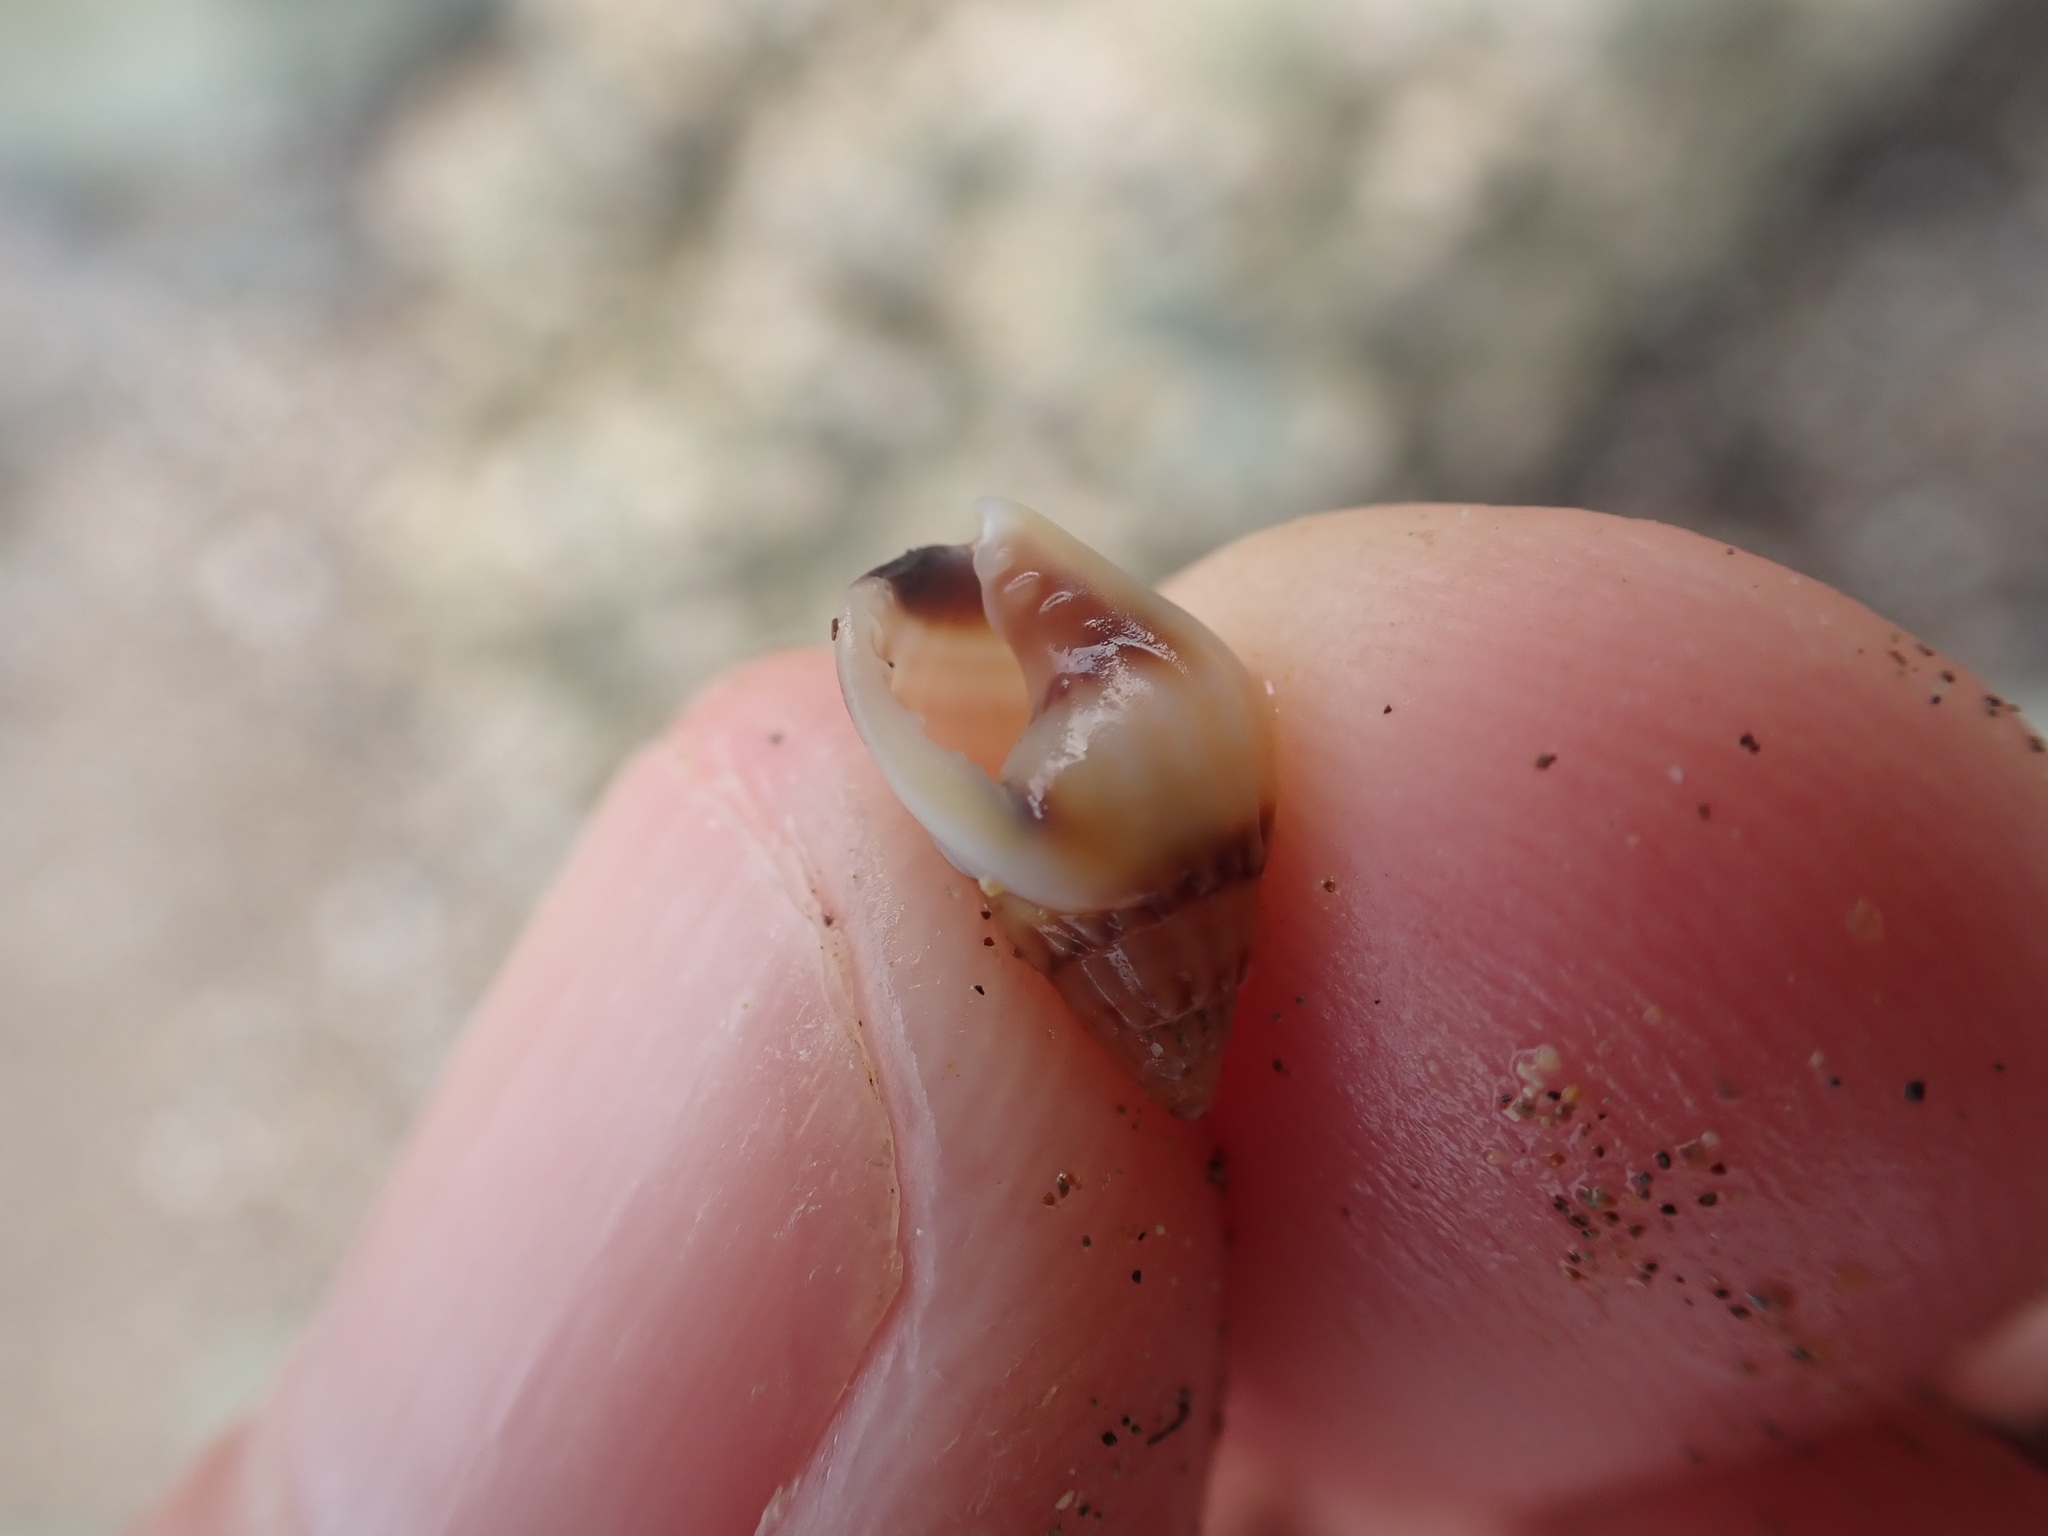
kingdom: Animalia
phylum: Mollusca
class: Gastropoda
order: Neogastropoda
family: Nassariidae
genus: Tritia
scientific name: Tritia burchardi
